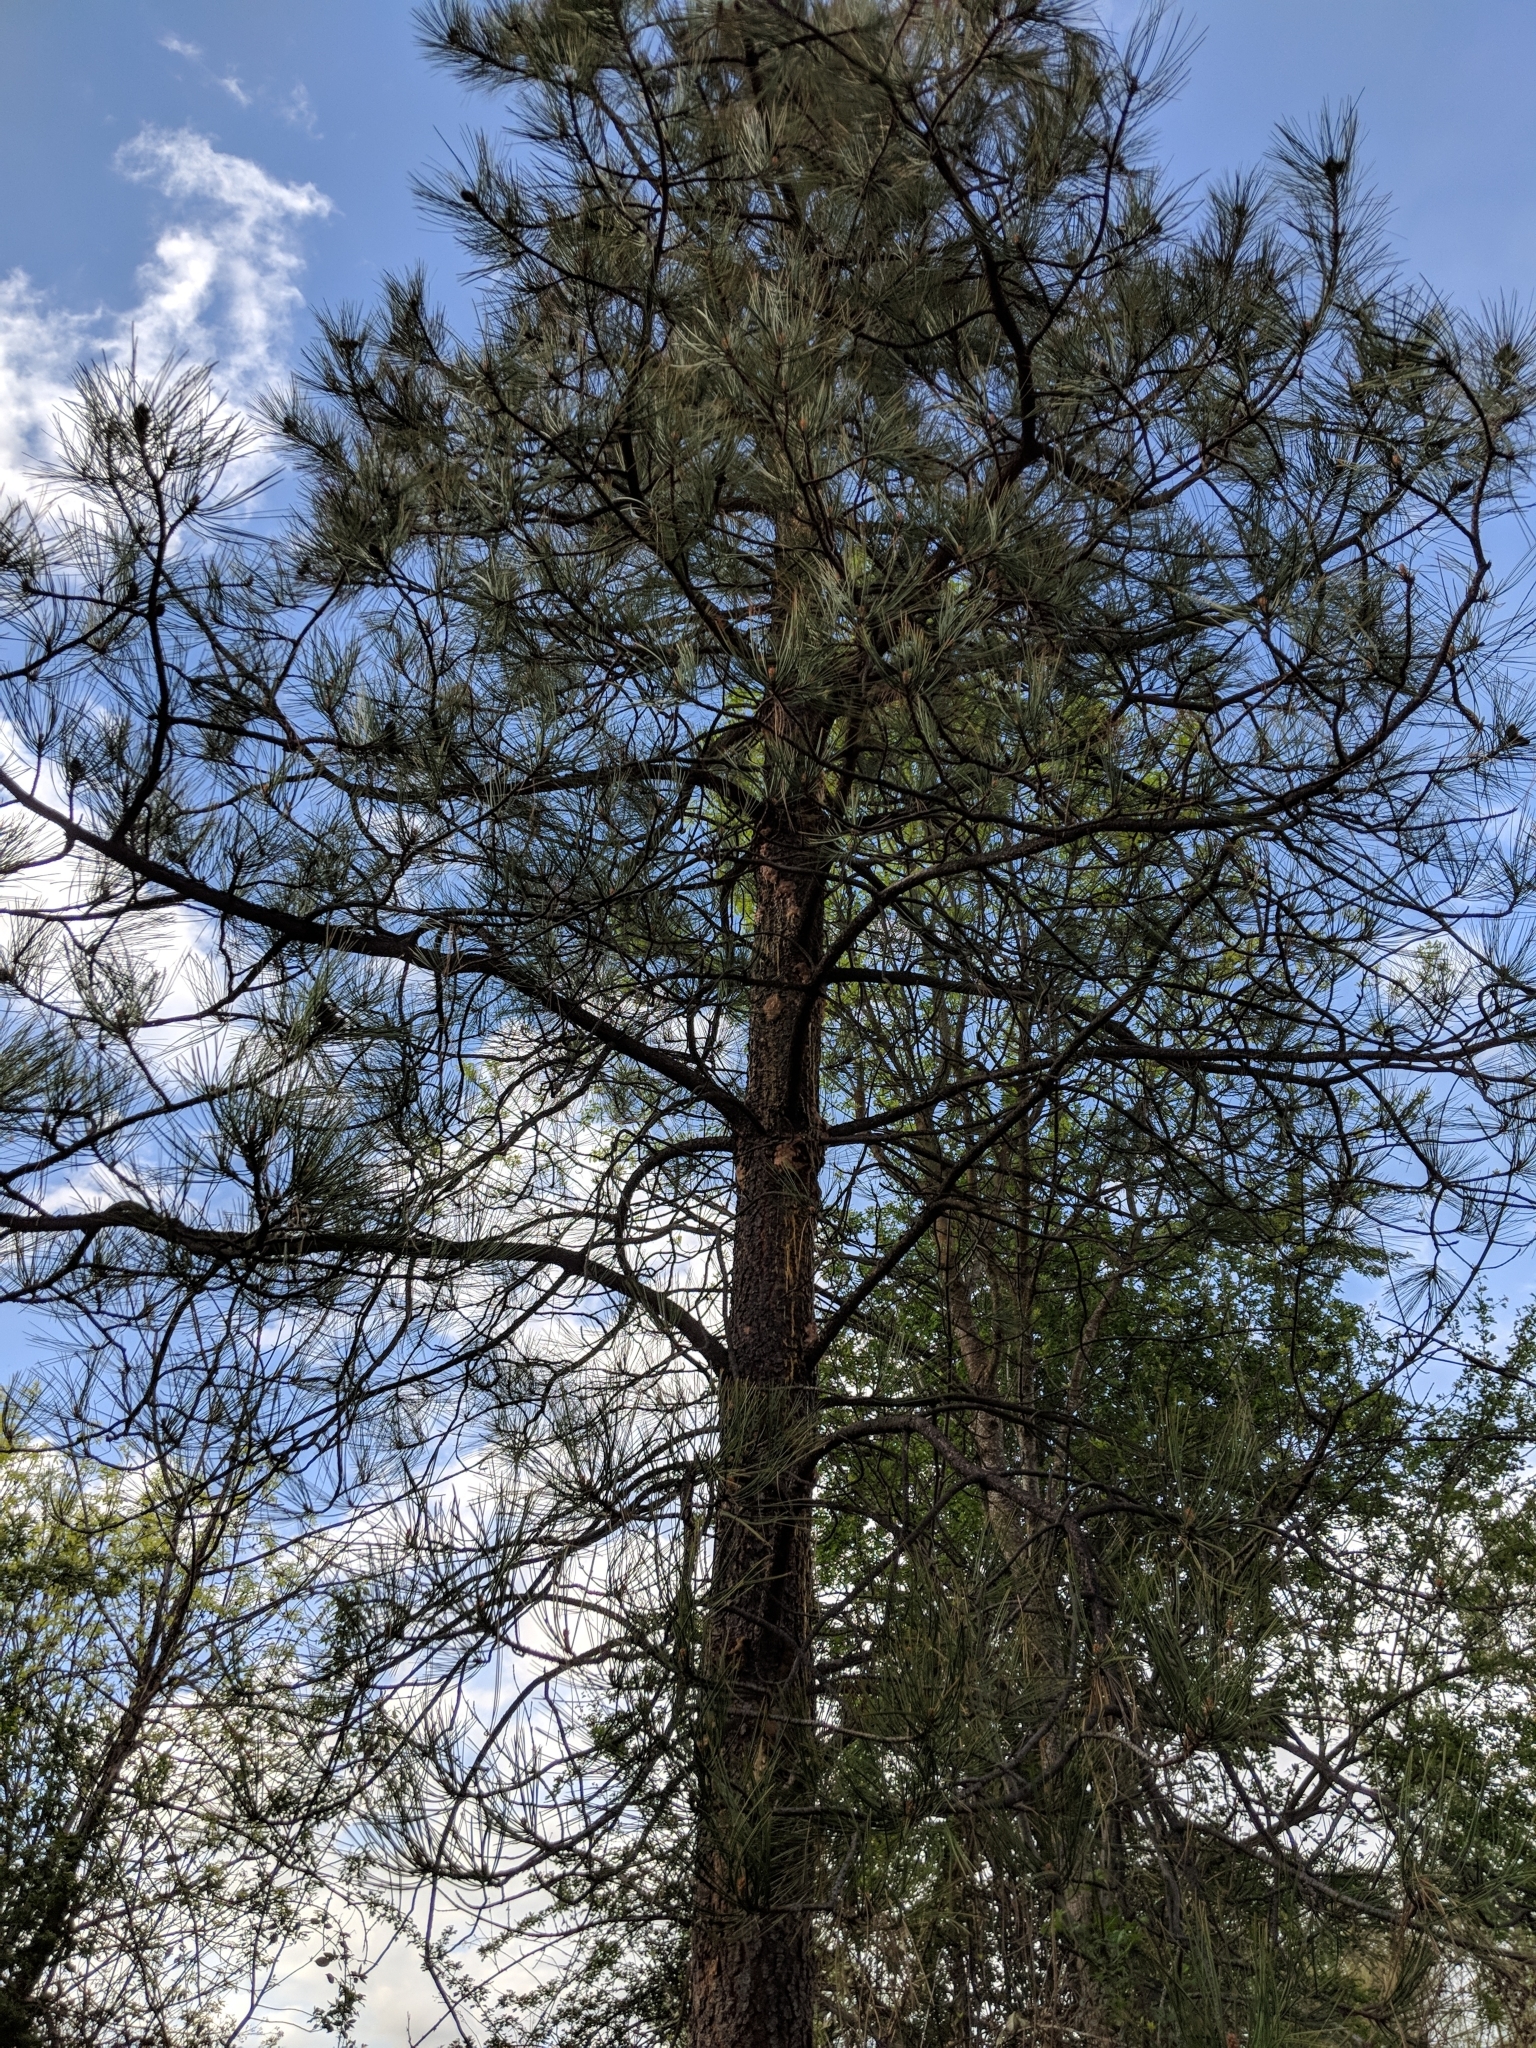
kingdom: Plantae
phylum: Tracheophyta
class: Pinopsida
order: Pinales
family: Pinaceae
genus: Pinus
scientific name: Pinus ponderosa
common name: Western yellow-pine
